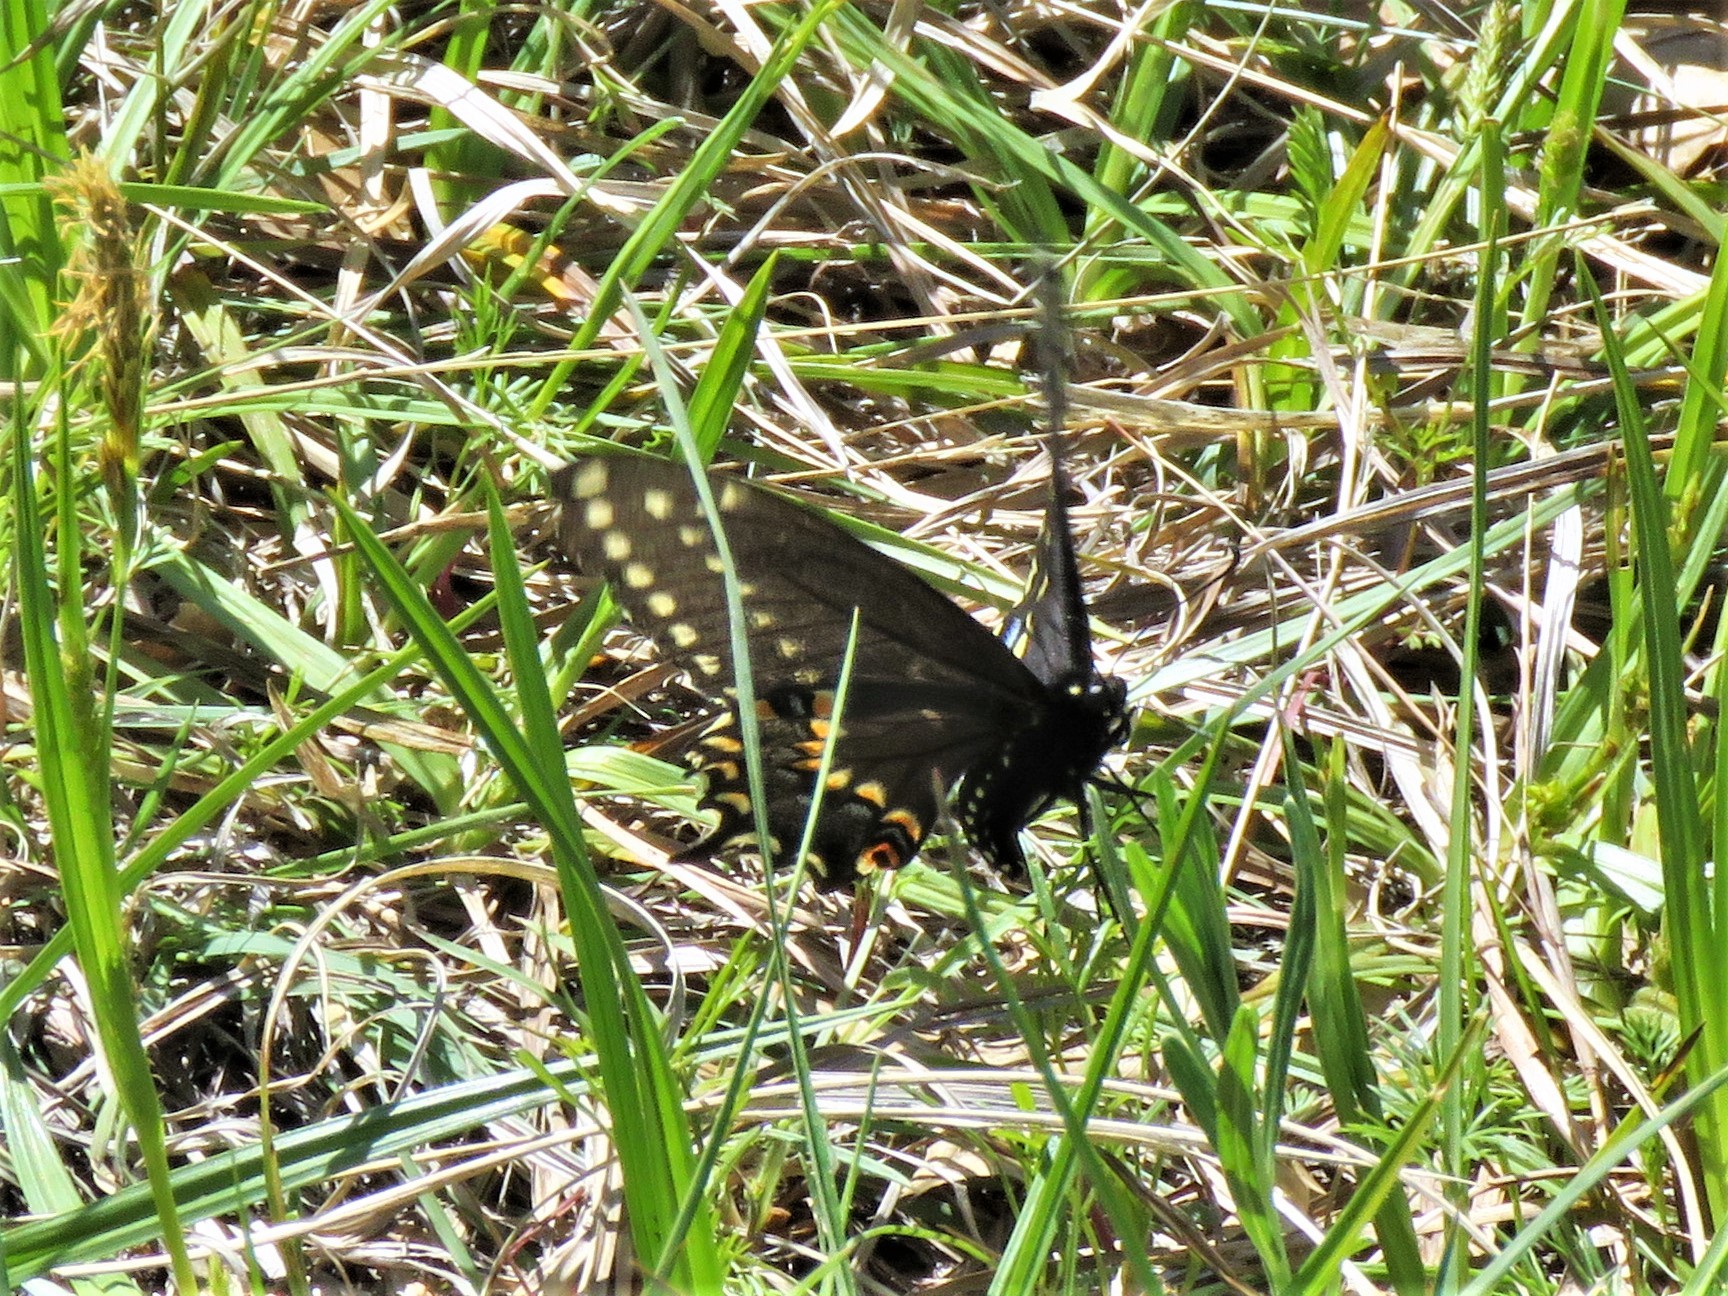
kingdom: Animalia
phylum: Arthropoda
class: Insecta
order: Lepidoptera
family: Papilionidae
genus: Papilio
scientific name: Papilio polyxenes
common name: Black swallowtail
